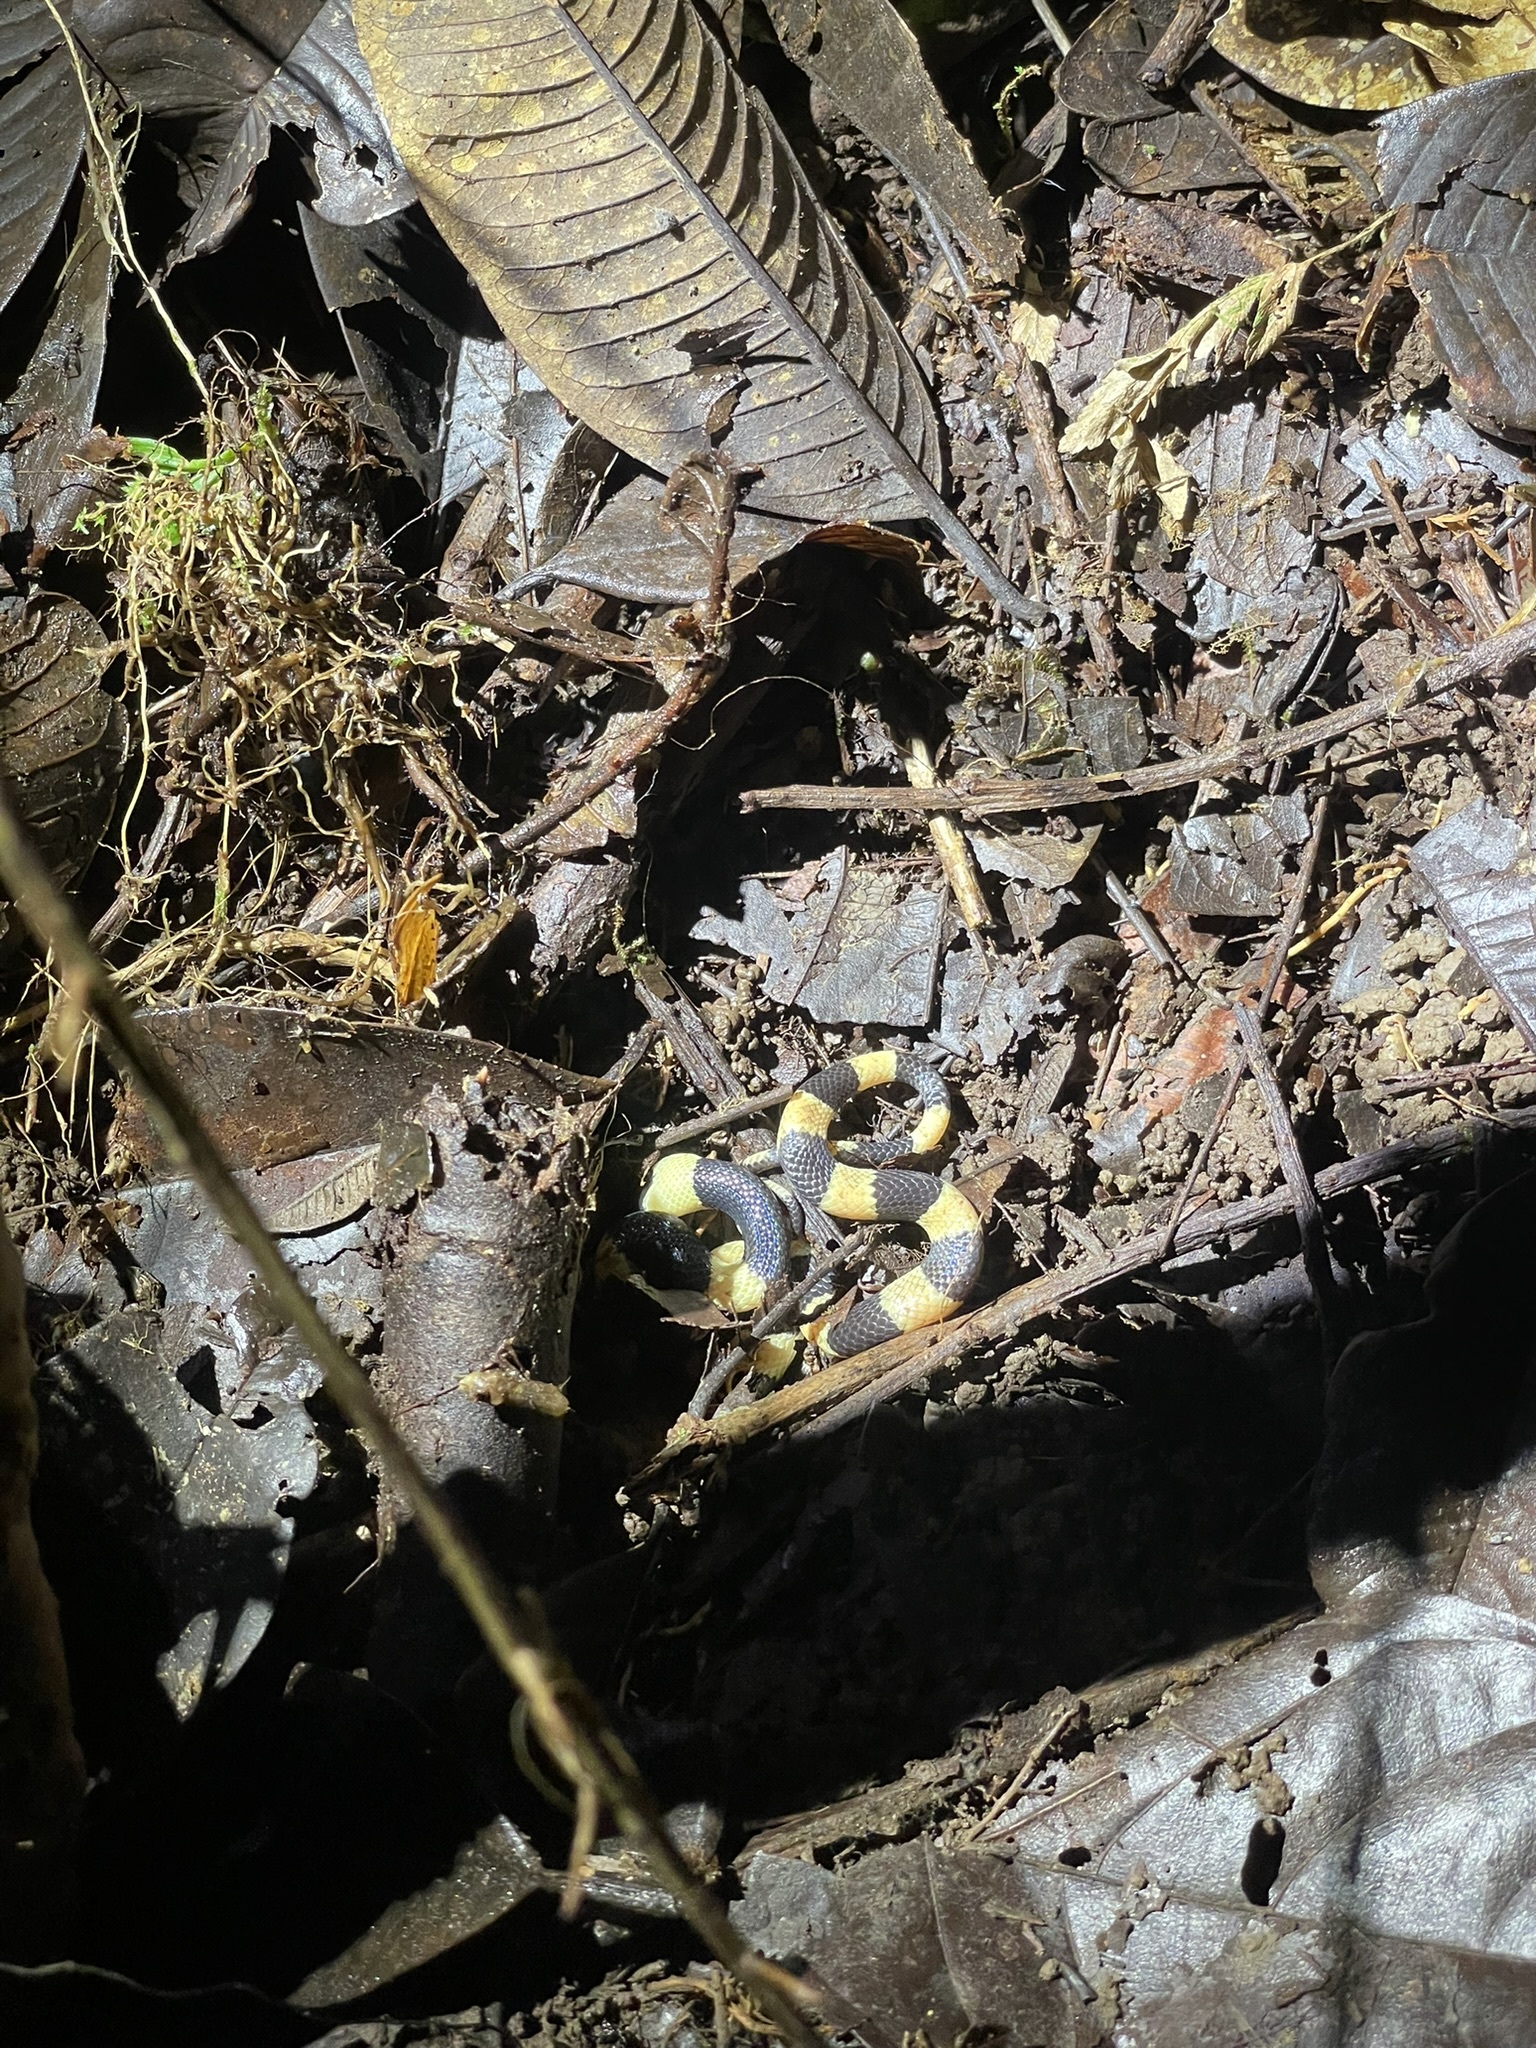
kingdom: Animalia
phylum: Chordata
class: Squamata
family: Colubridae
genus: Oxyrhopus
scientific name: Oxyrhopus petolarius
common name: Forest flame snake
